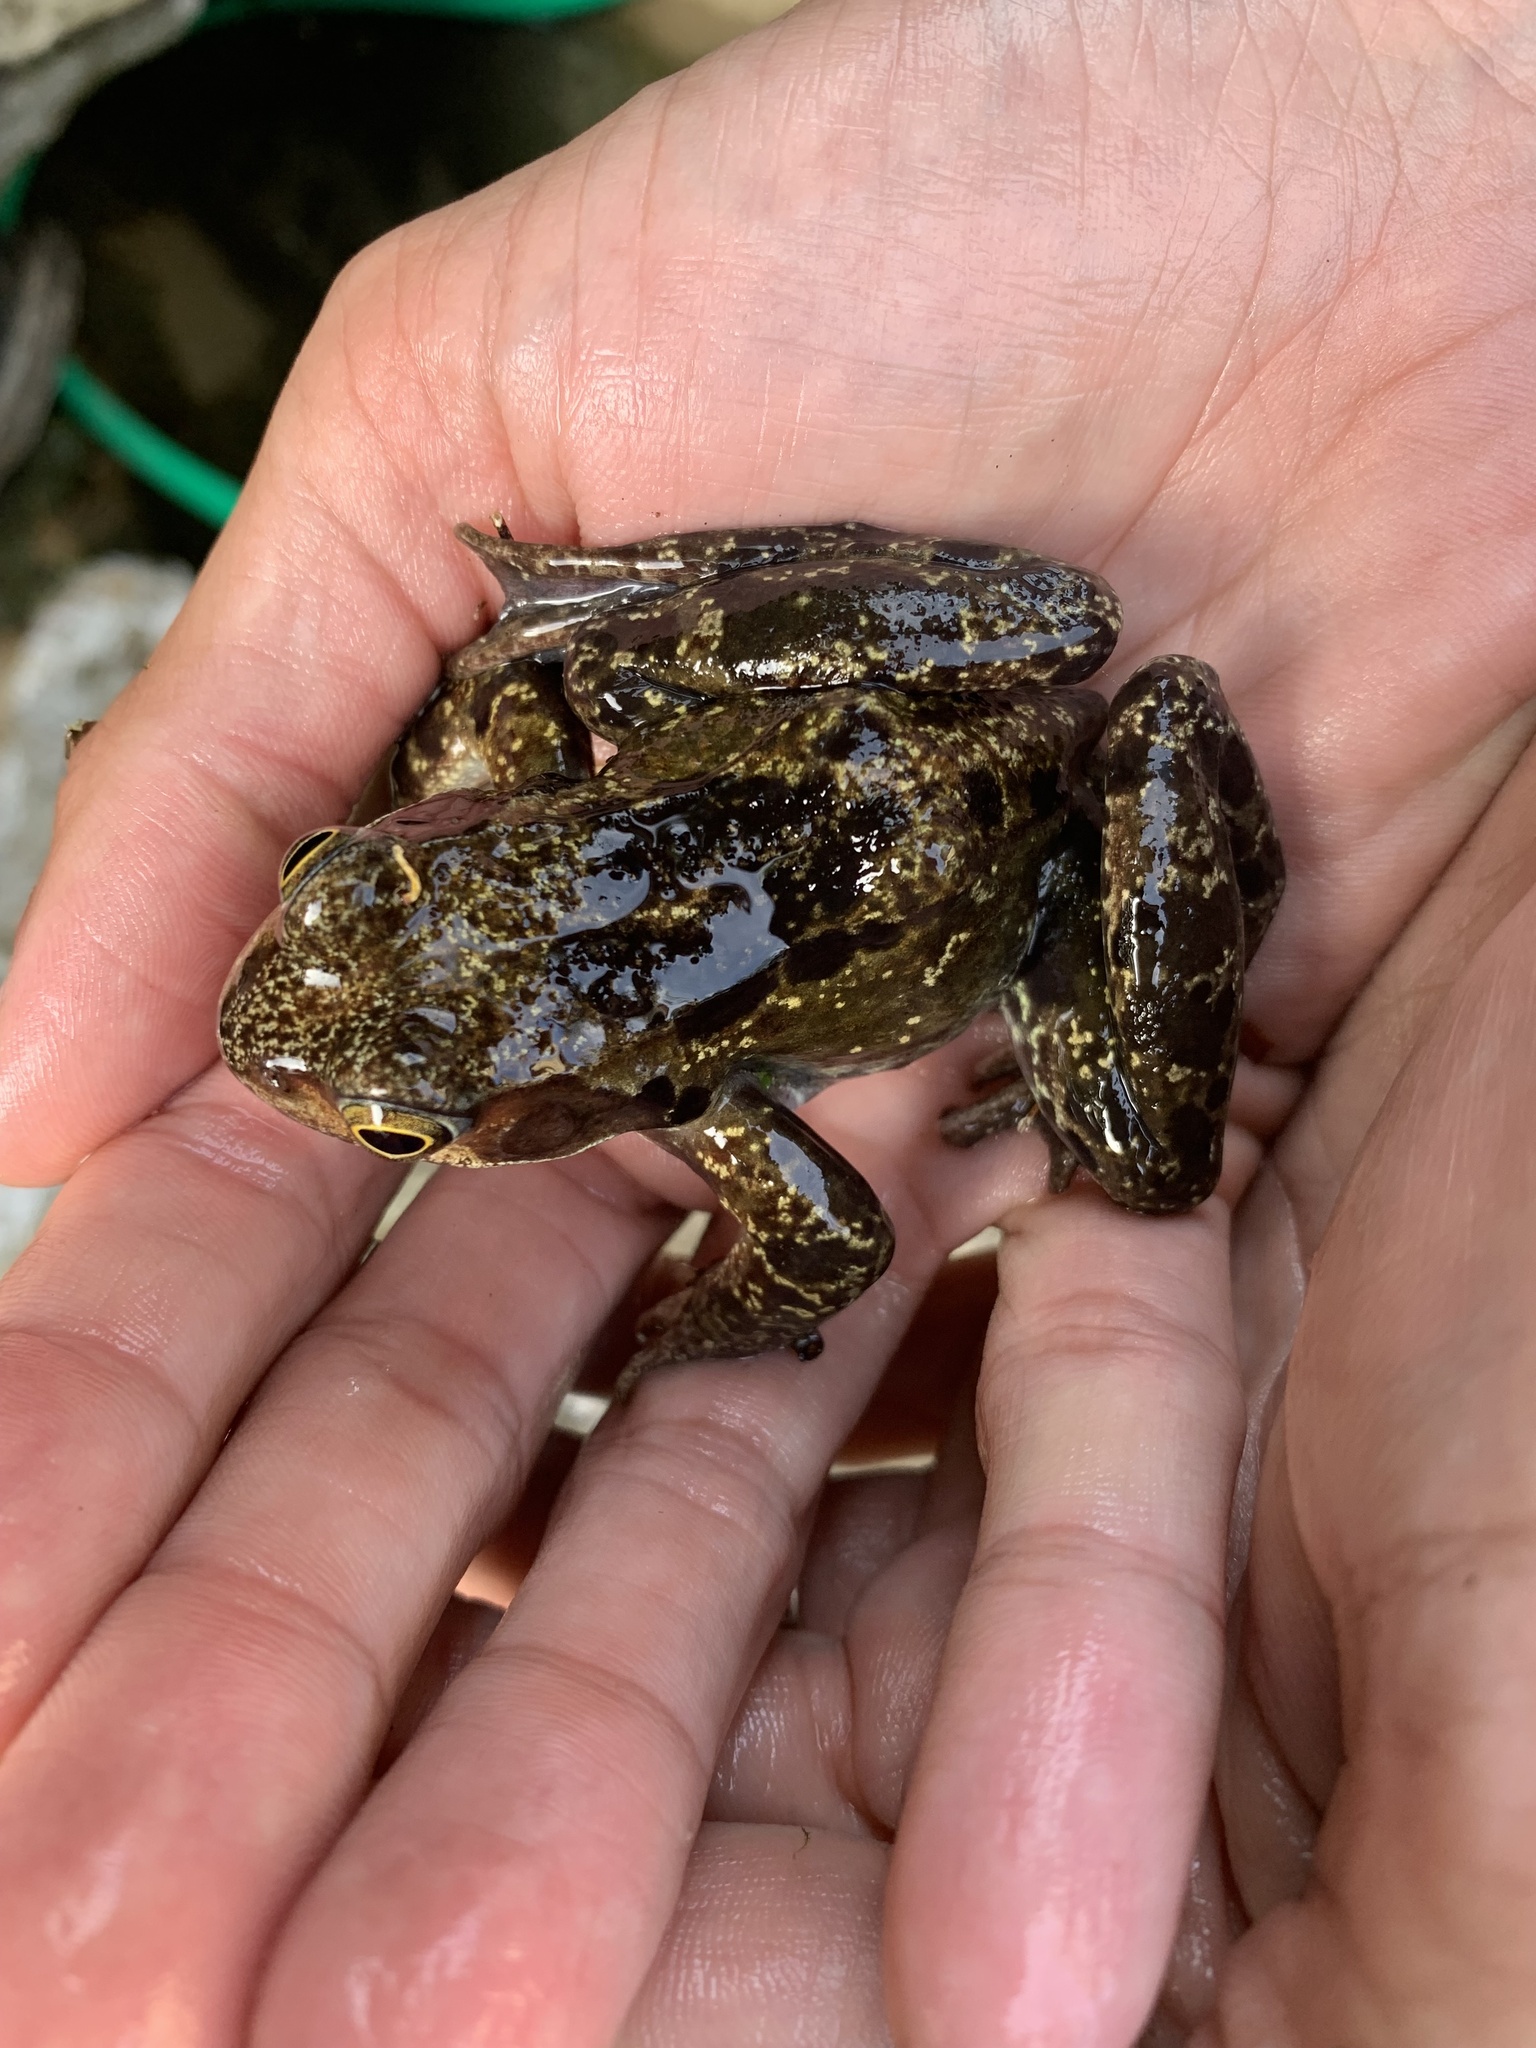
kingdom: Animalia
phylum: Chordata
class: Amphibia
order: Anura
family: Ranidae
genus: Rana
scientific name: Rana temporaria
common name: Common frog
